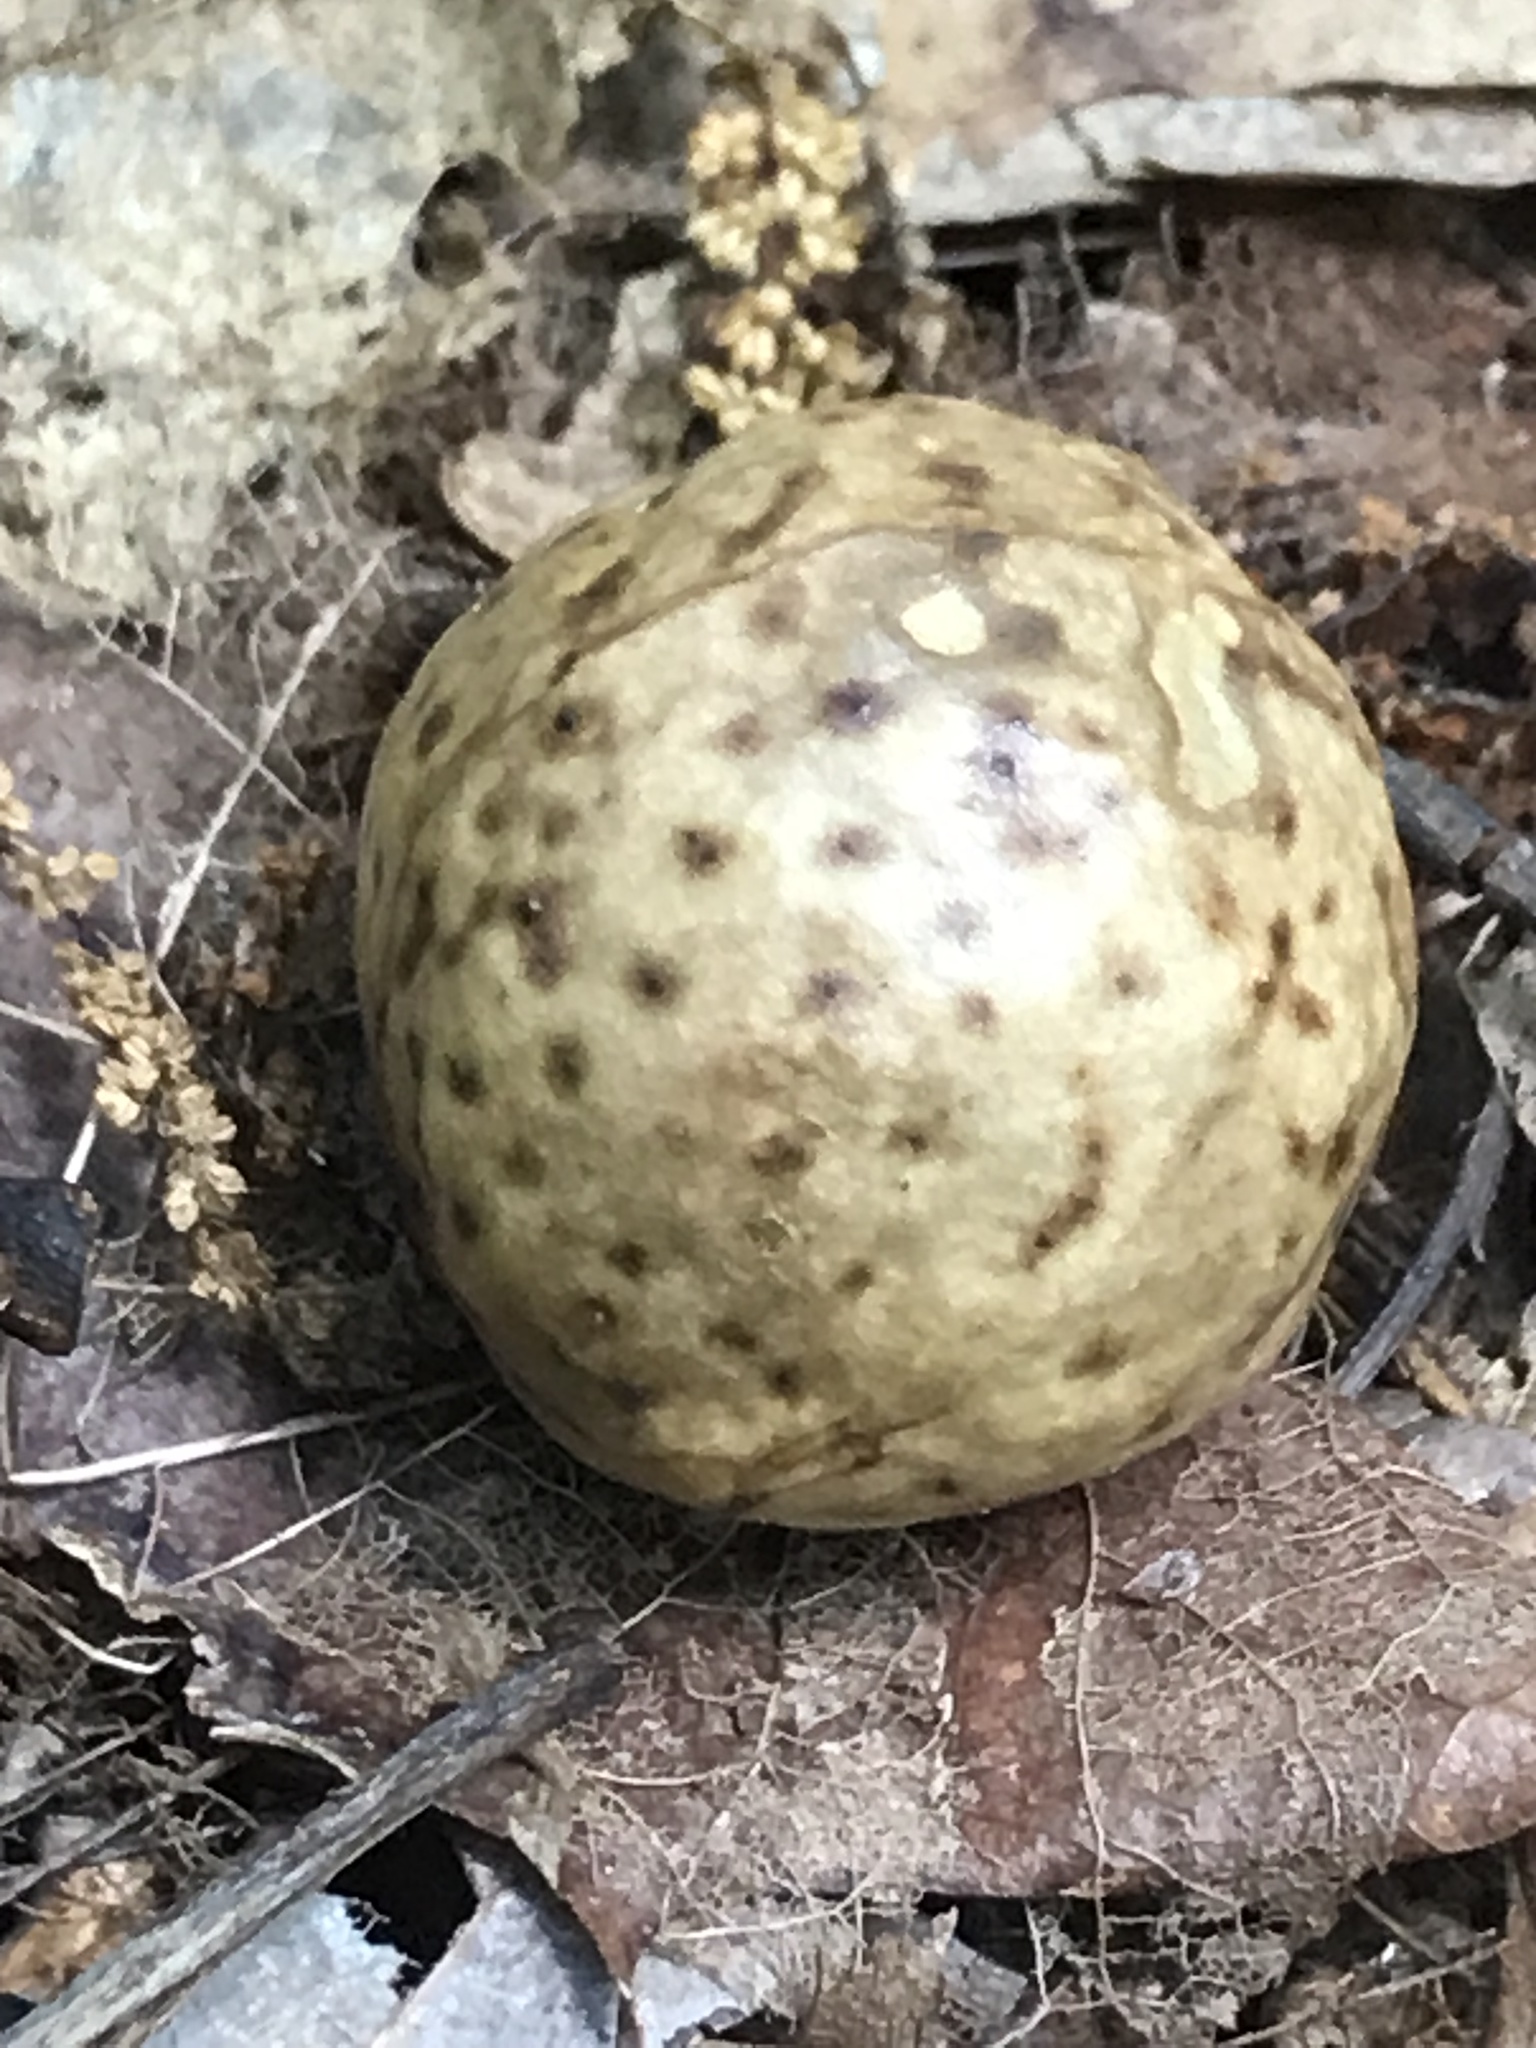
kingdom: Animalia
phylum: Arthropoda
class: Insecta
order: Hymenoptera
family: Cynipidae
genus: Amphibolips
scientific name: Amphibolips
